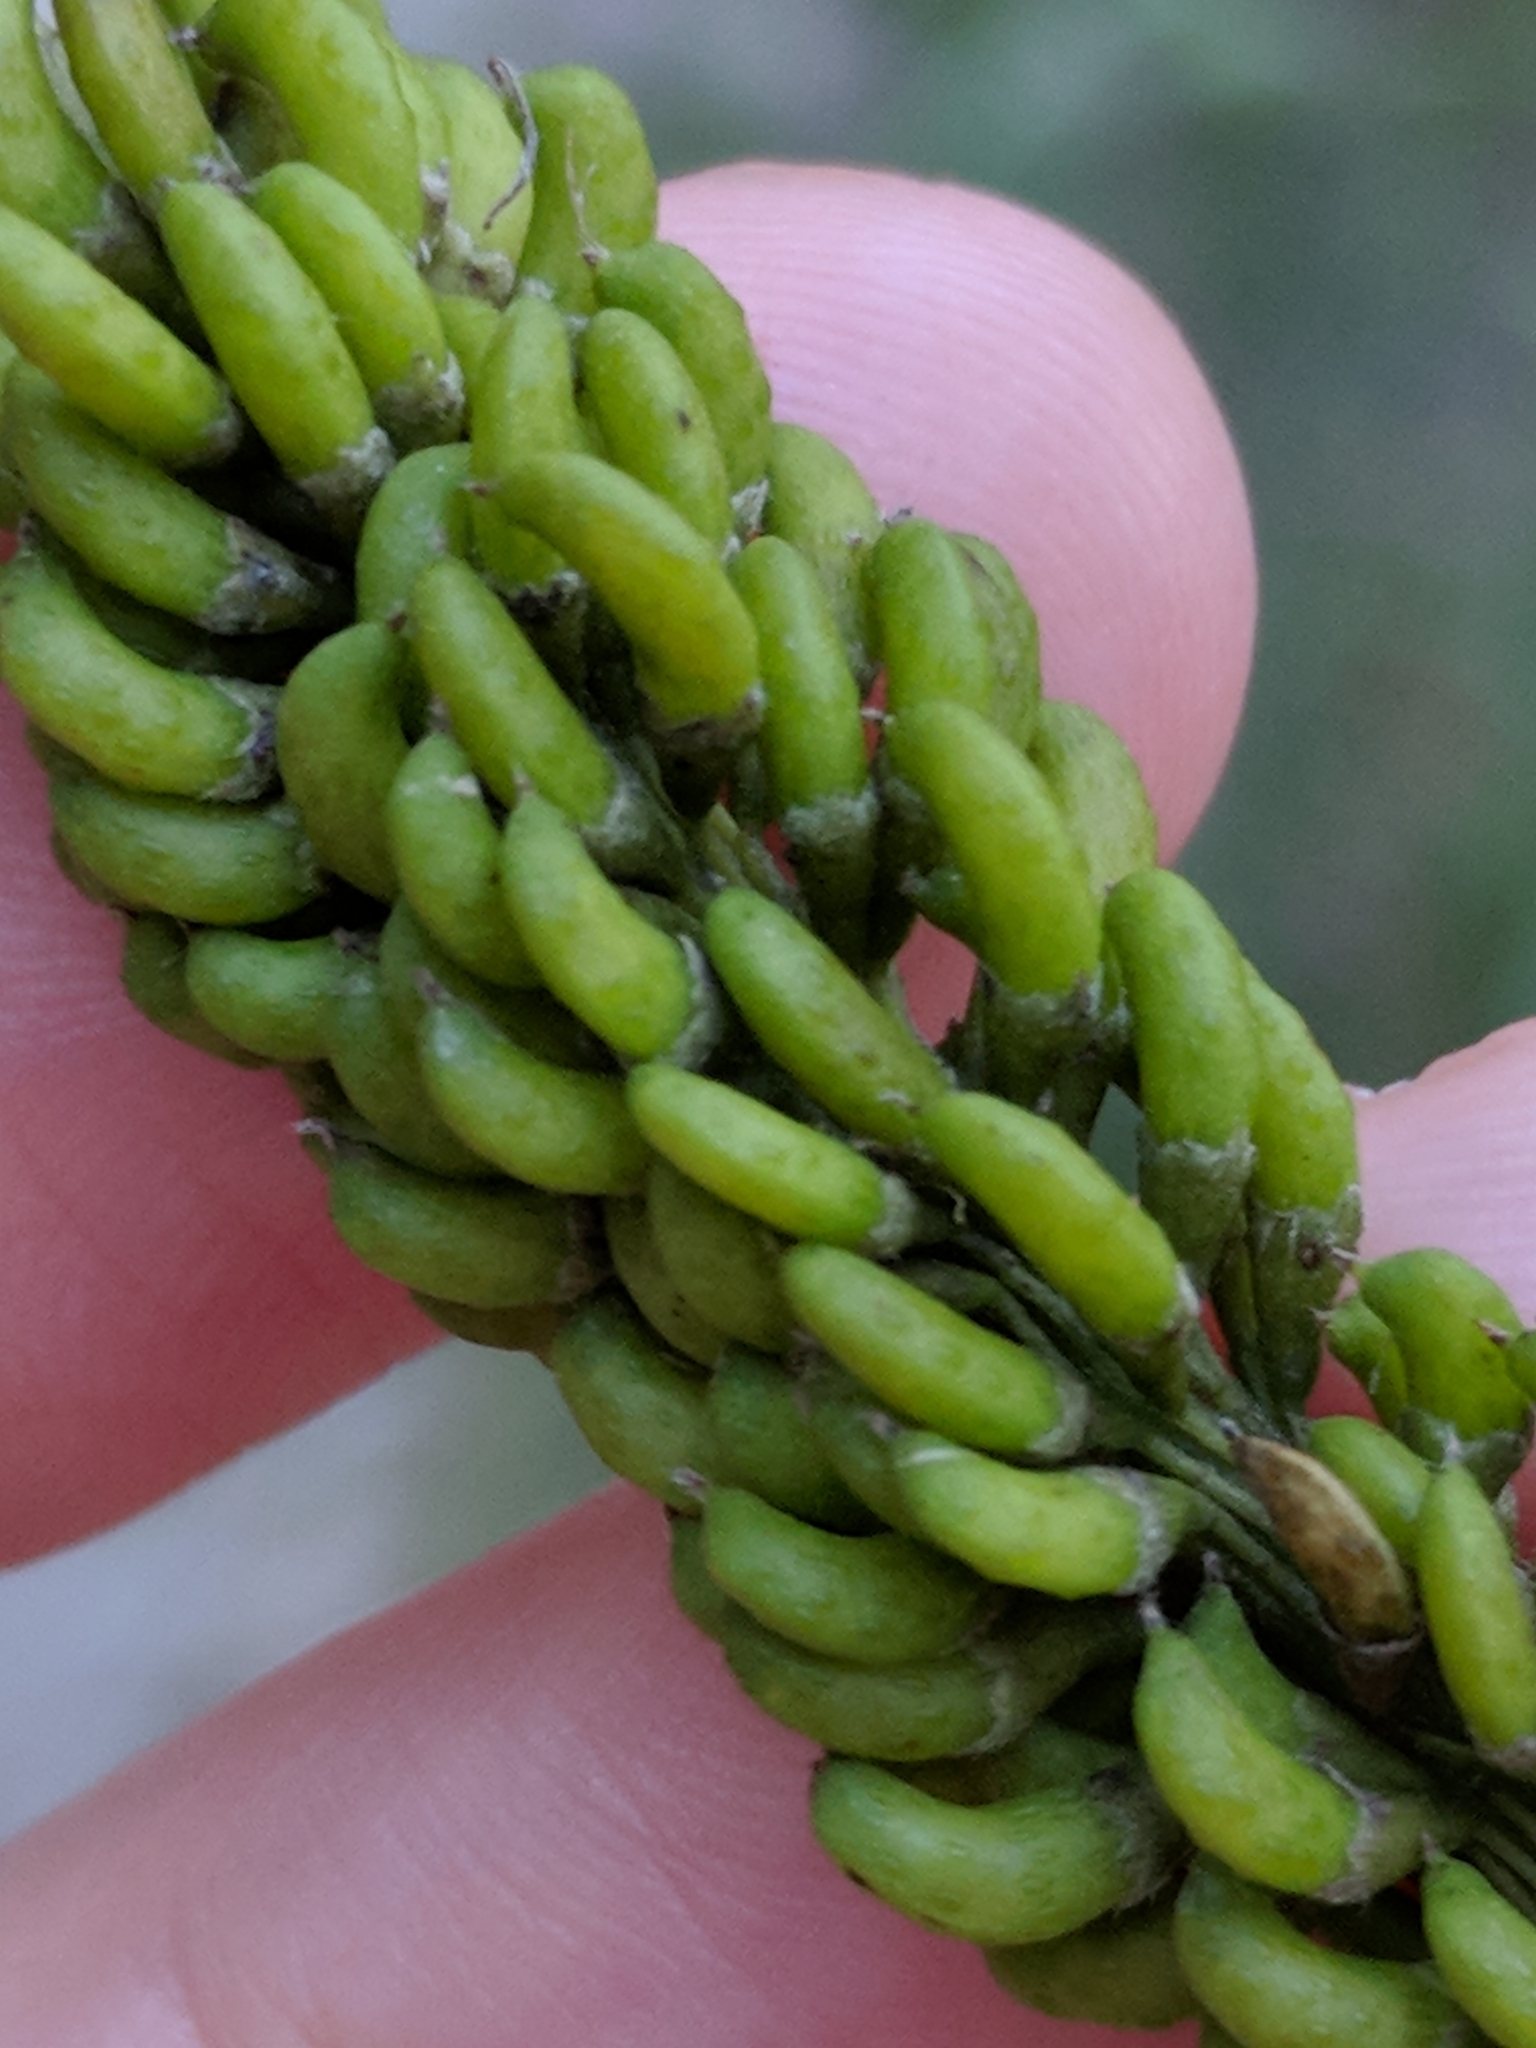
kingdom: Plantae
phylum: Tracheophyta
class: Magnoliopsida
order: Fabales
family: Fabaceae
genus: Amorpha
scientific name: Amorpha fruticosa
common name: False indigo
